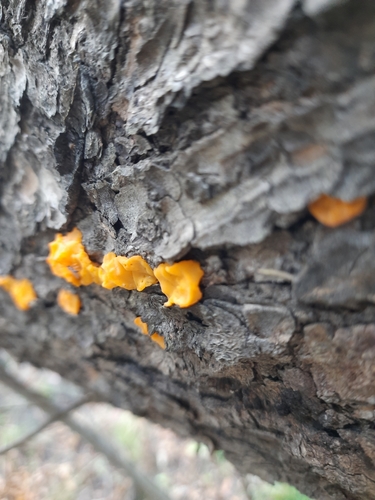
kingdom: Fungi
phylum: Basidiomycota
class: Dacrymycetes
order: Dacrymycetales
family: Dacrymycetaceae
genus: Dacrymyces
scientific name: Dacrymyces chrysospermus
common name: Orange jelly spot
